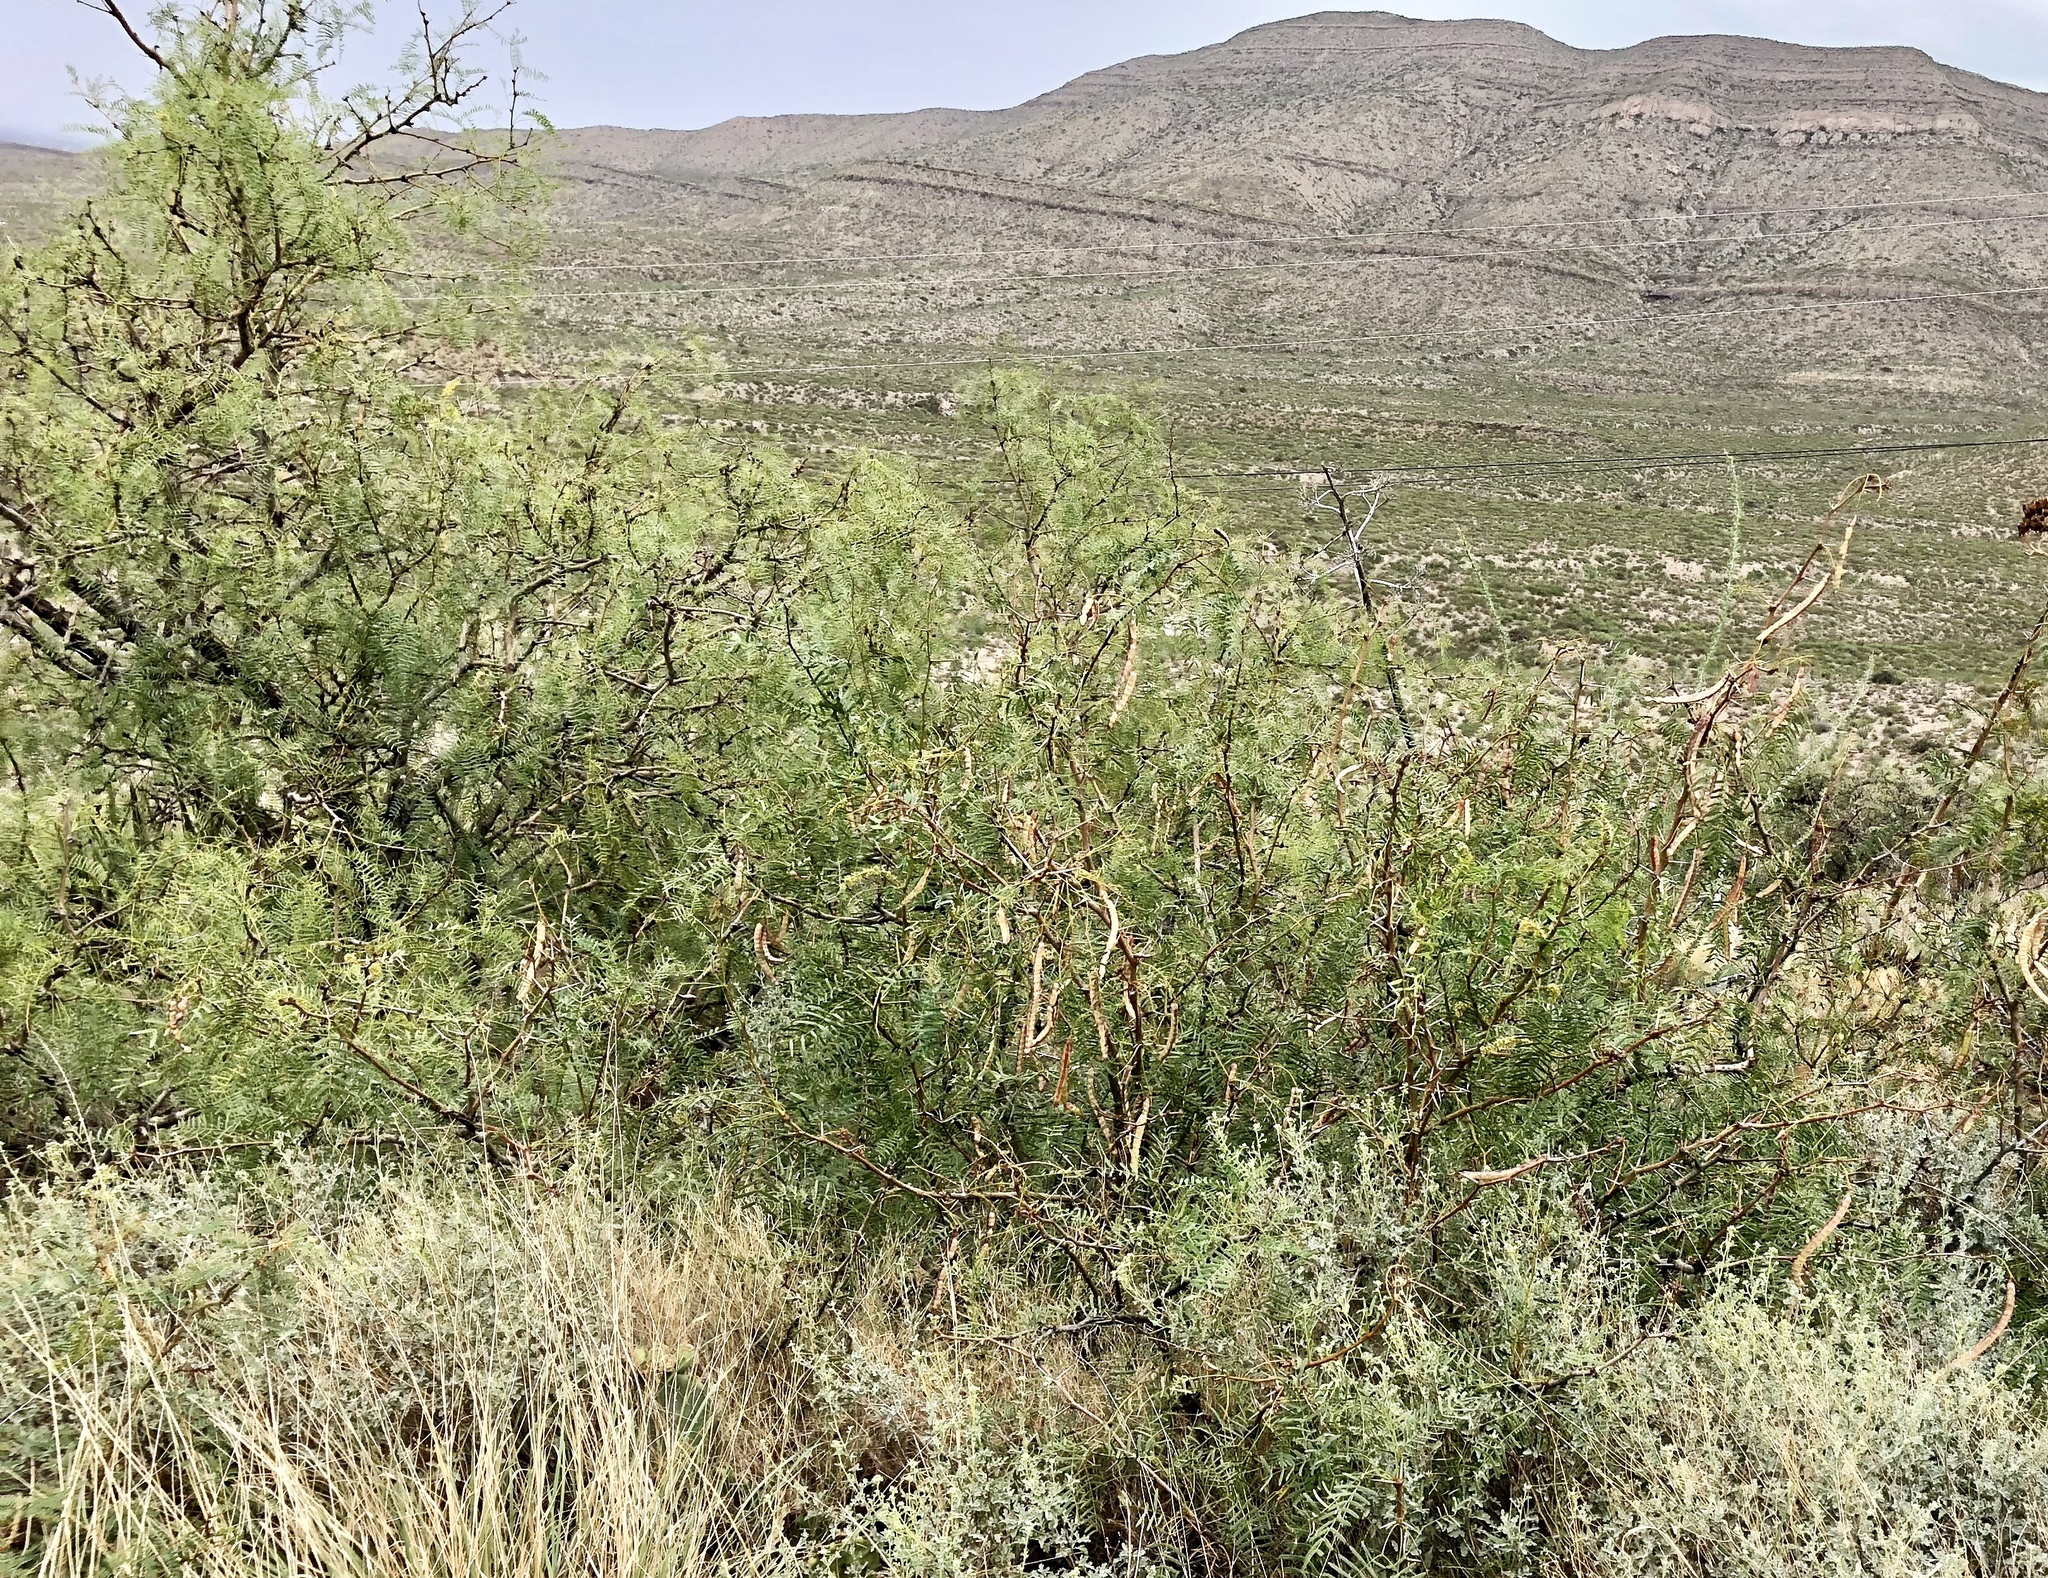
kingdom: Plantae
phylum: Tracheophyta
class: Magnoliopsida
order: Fabales
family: Fabaceae
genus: Prosopis
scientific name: Prosopis glandulosa
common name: Honey mesquite
